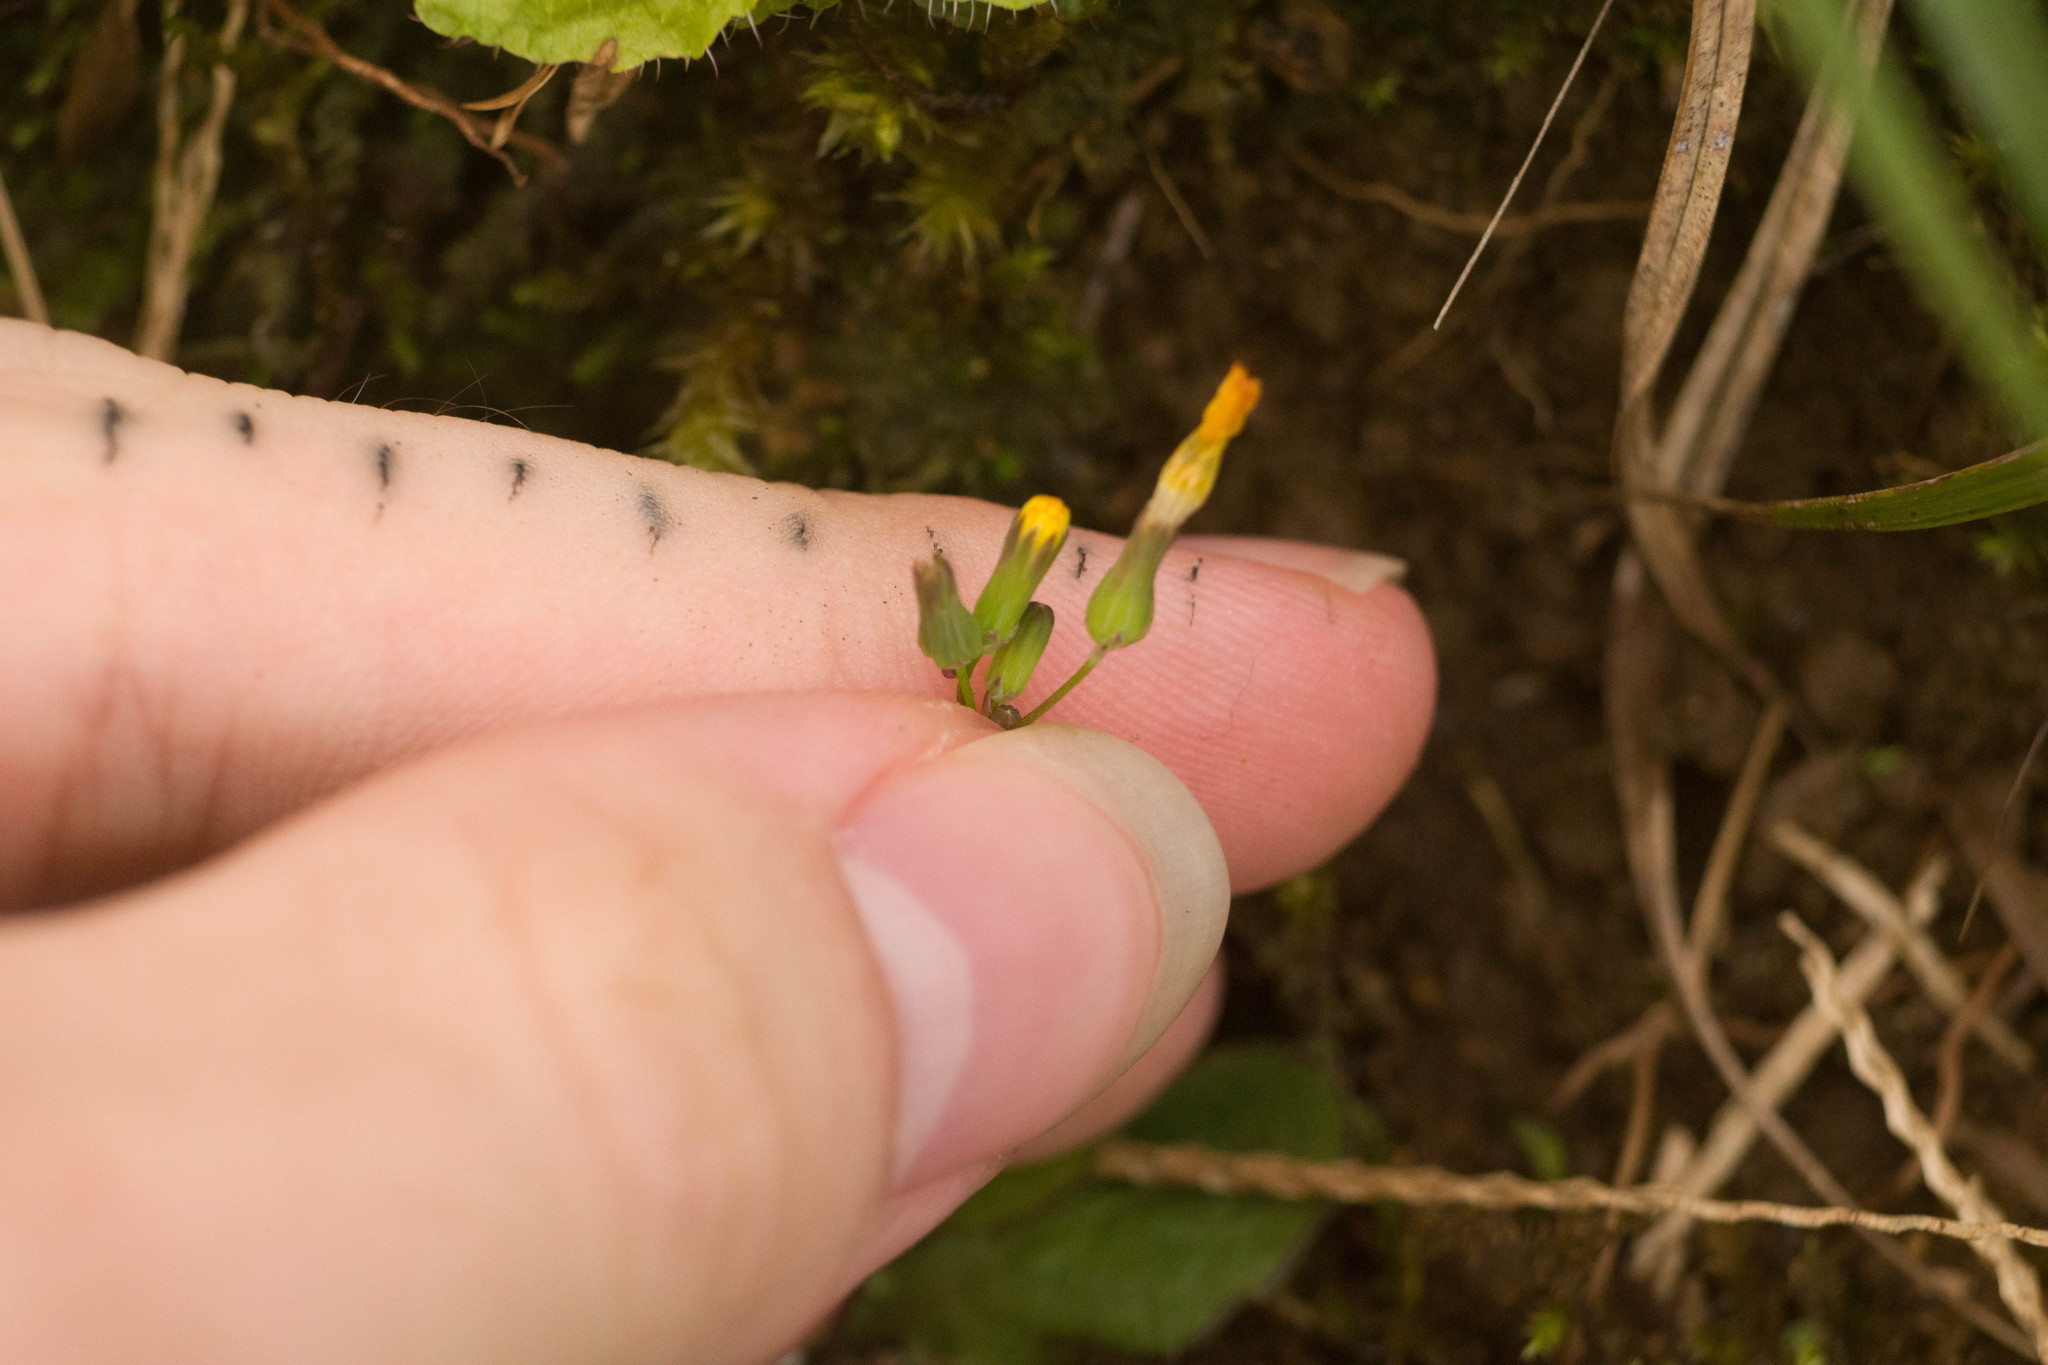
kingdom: Plantae
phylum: Tracheophyta
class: Magnoliopsida
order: Asterales
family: Asteraceae
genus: Youngia
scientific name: Youngia japonica
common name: Oriental false hawksbeard
